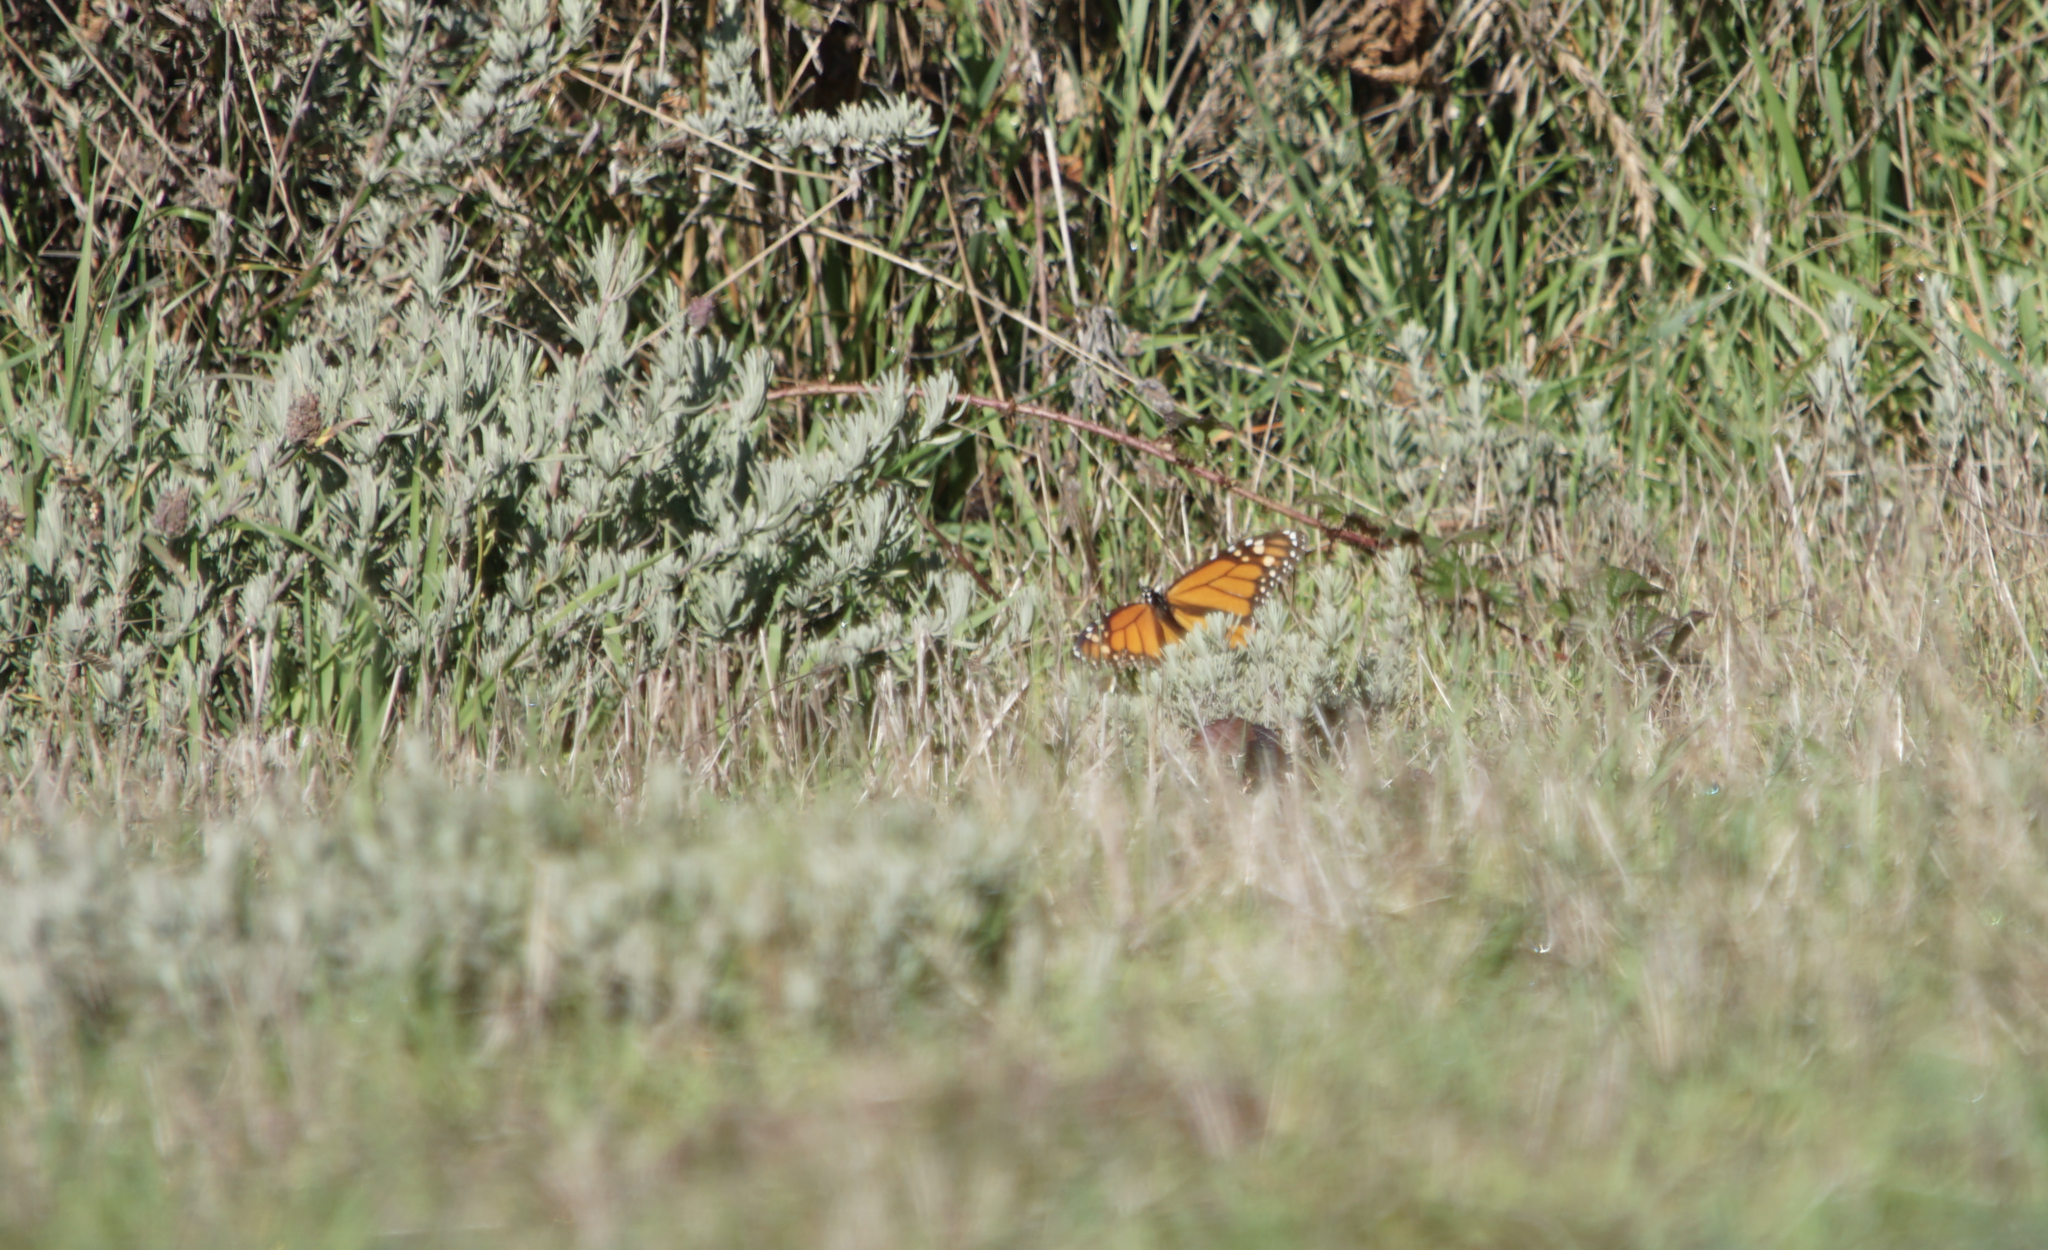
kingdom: Animalia
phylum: Arthropoda
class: Insecta
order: Lepidoptera
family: Nymphalidae
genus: Danaus
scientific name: Danaus plexippus
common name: Monarch
